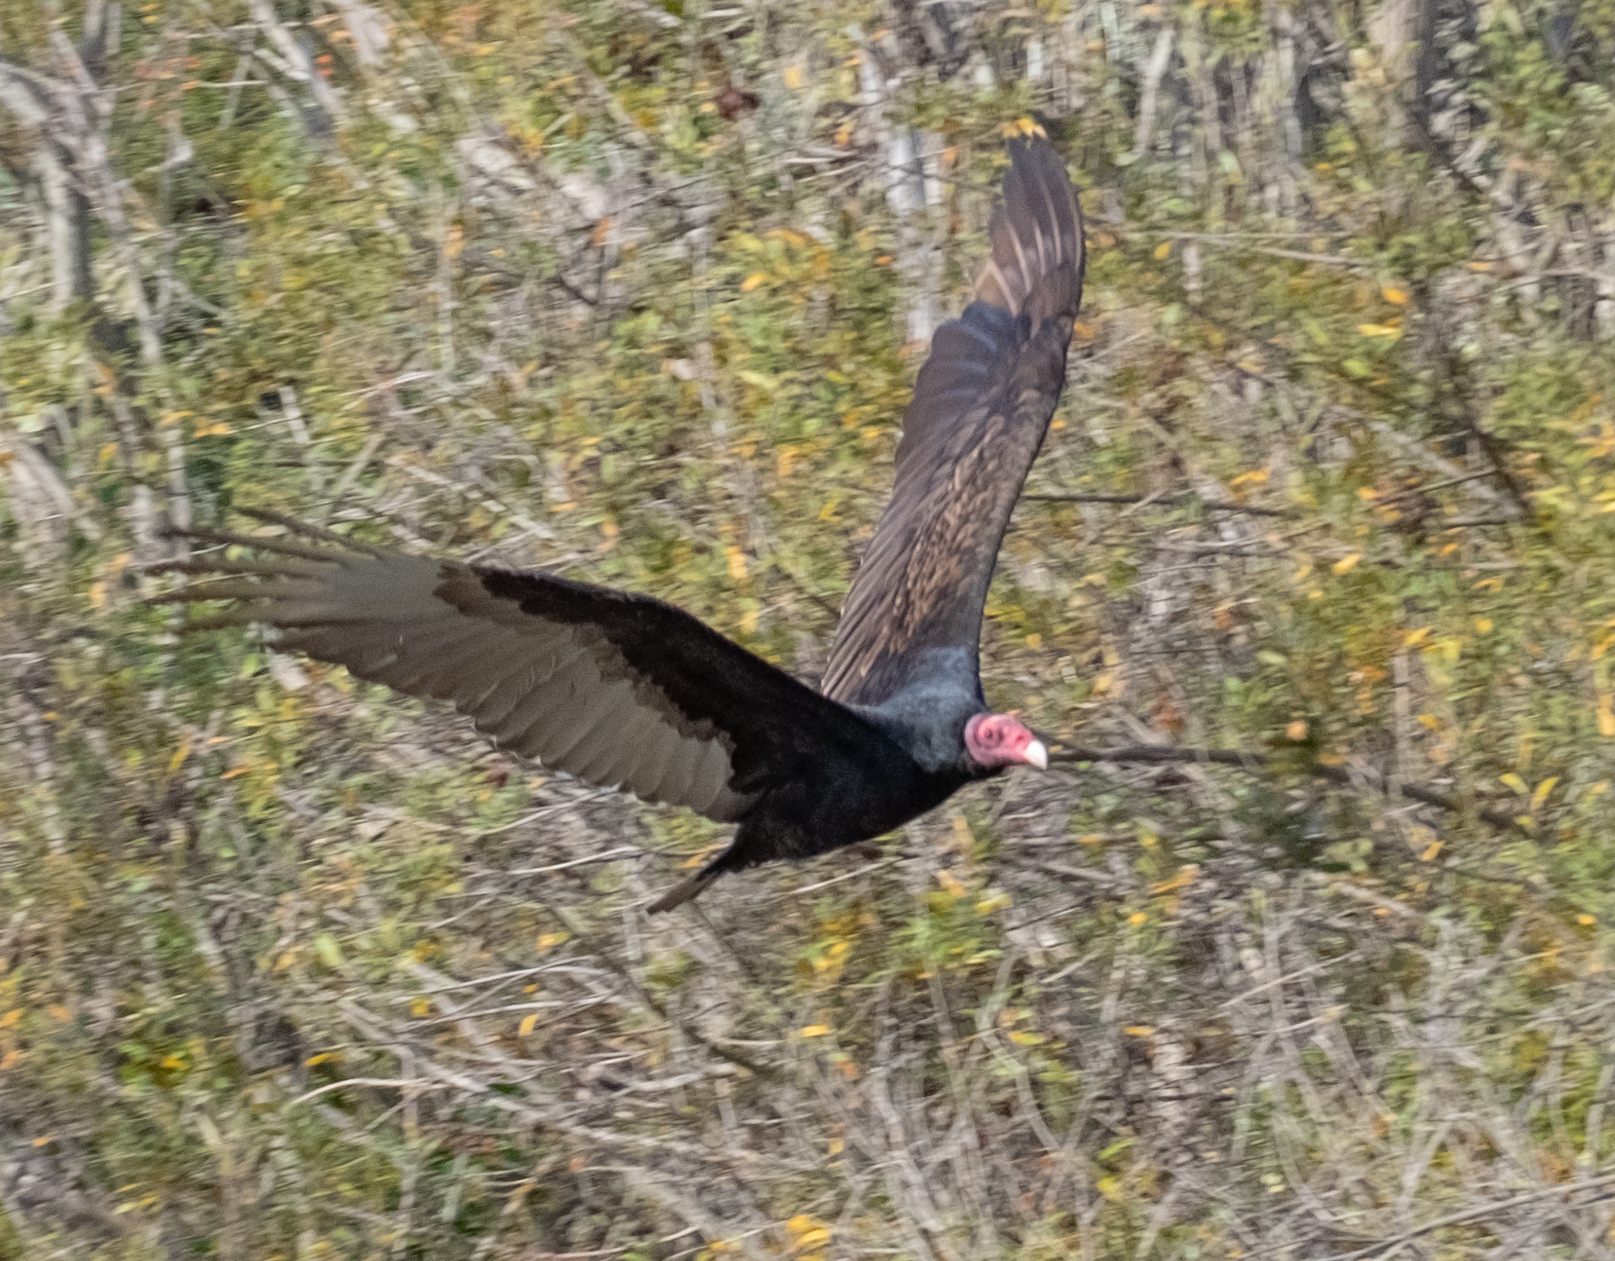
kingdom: Animalia
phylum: Chordata
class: Aves
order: Accipitriformes
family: Cathartidae
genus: Cathartes
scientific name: Cathartes aura
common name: Turkey vulture
